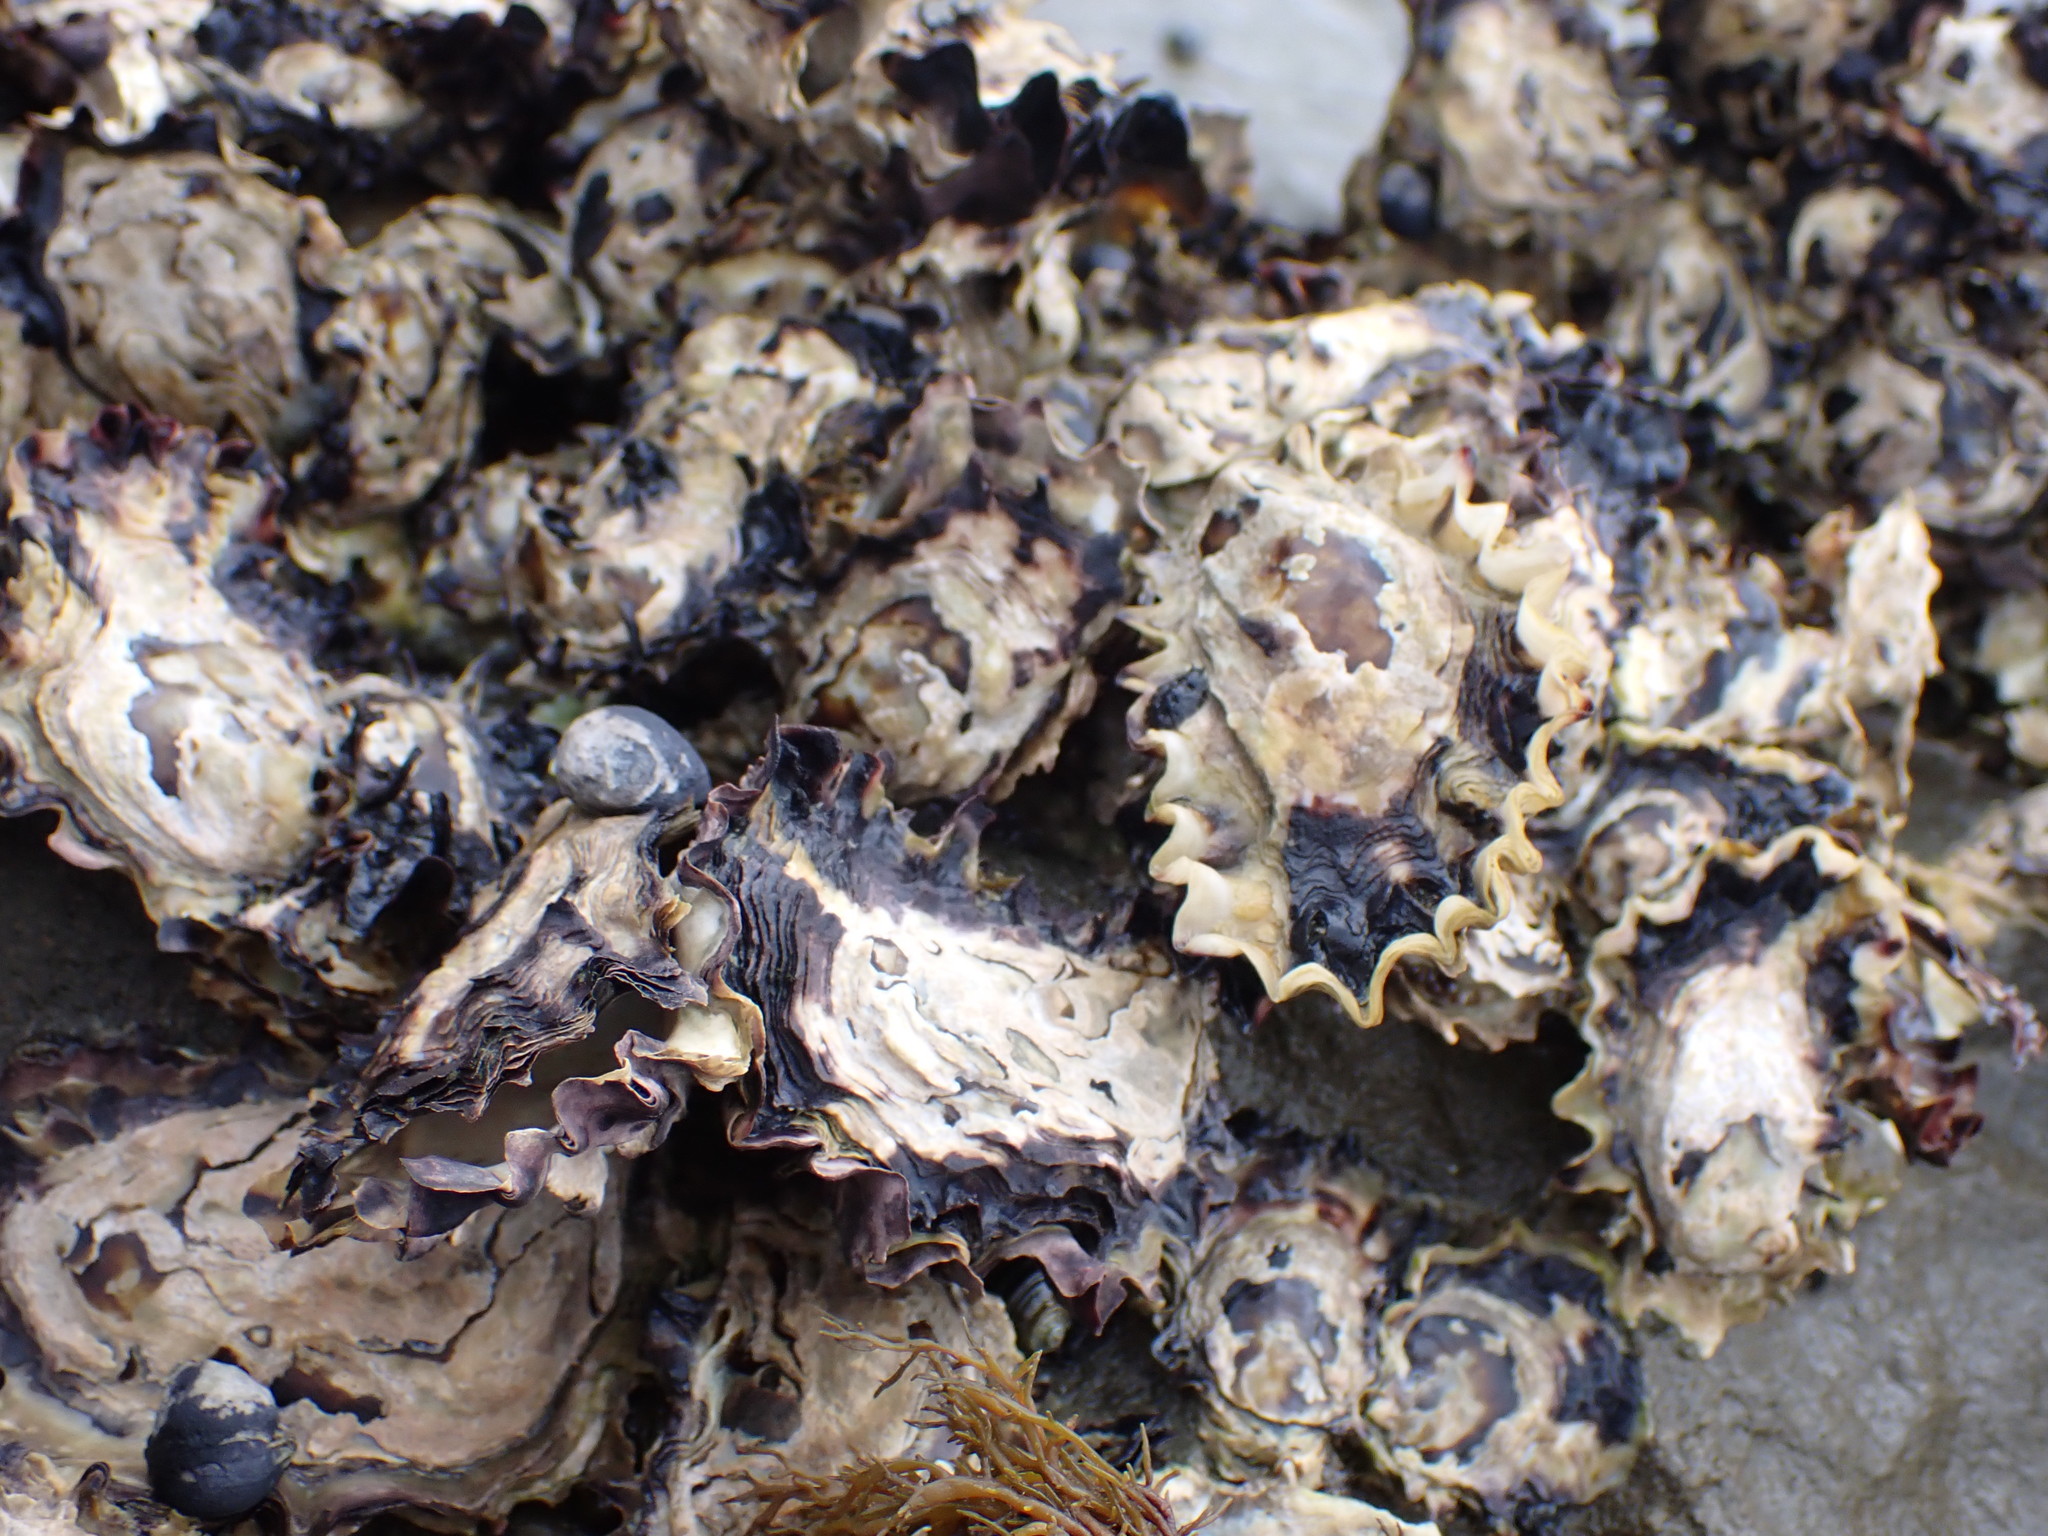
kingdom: Animalia
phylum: Mollusca
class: Bivalvia
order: Ostreida
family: Ostreidae
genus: Saccostrea
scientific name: Saccostrea glomerata
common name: Sydney cupped oyster
